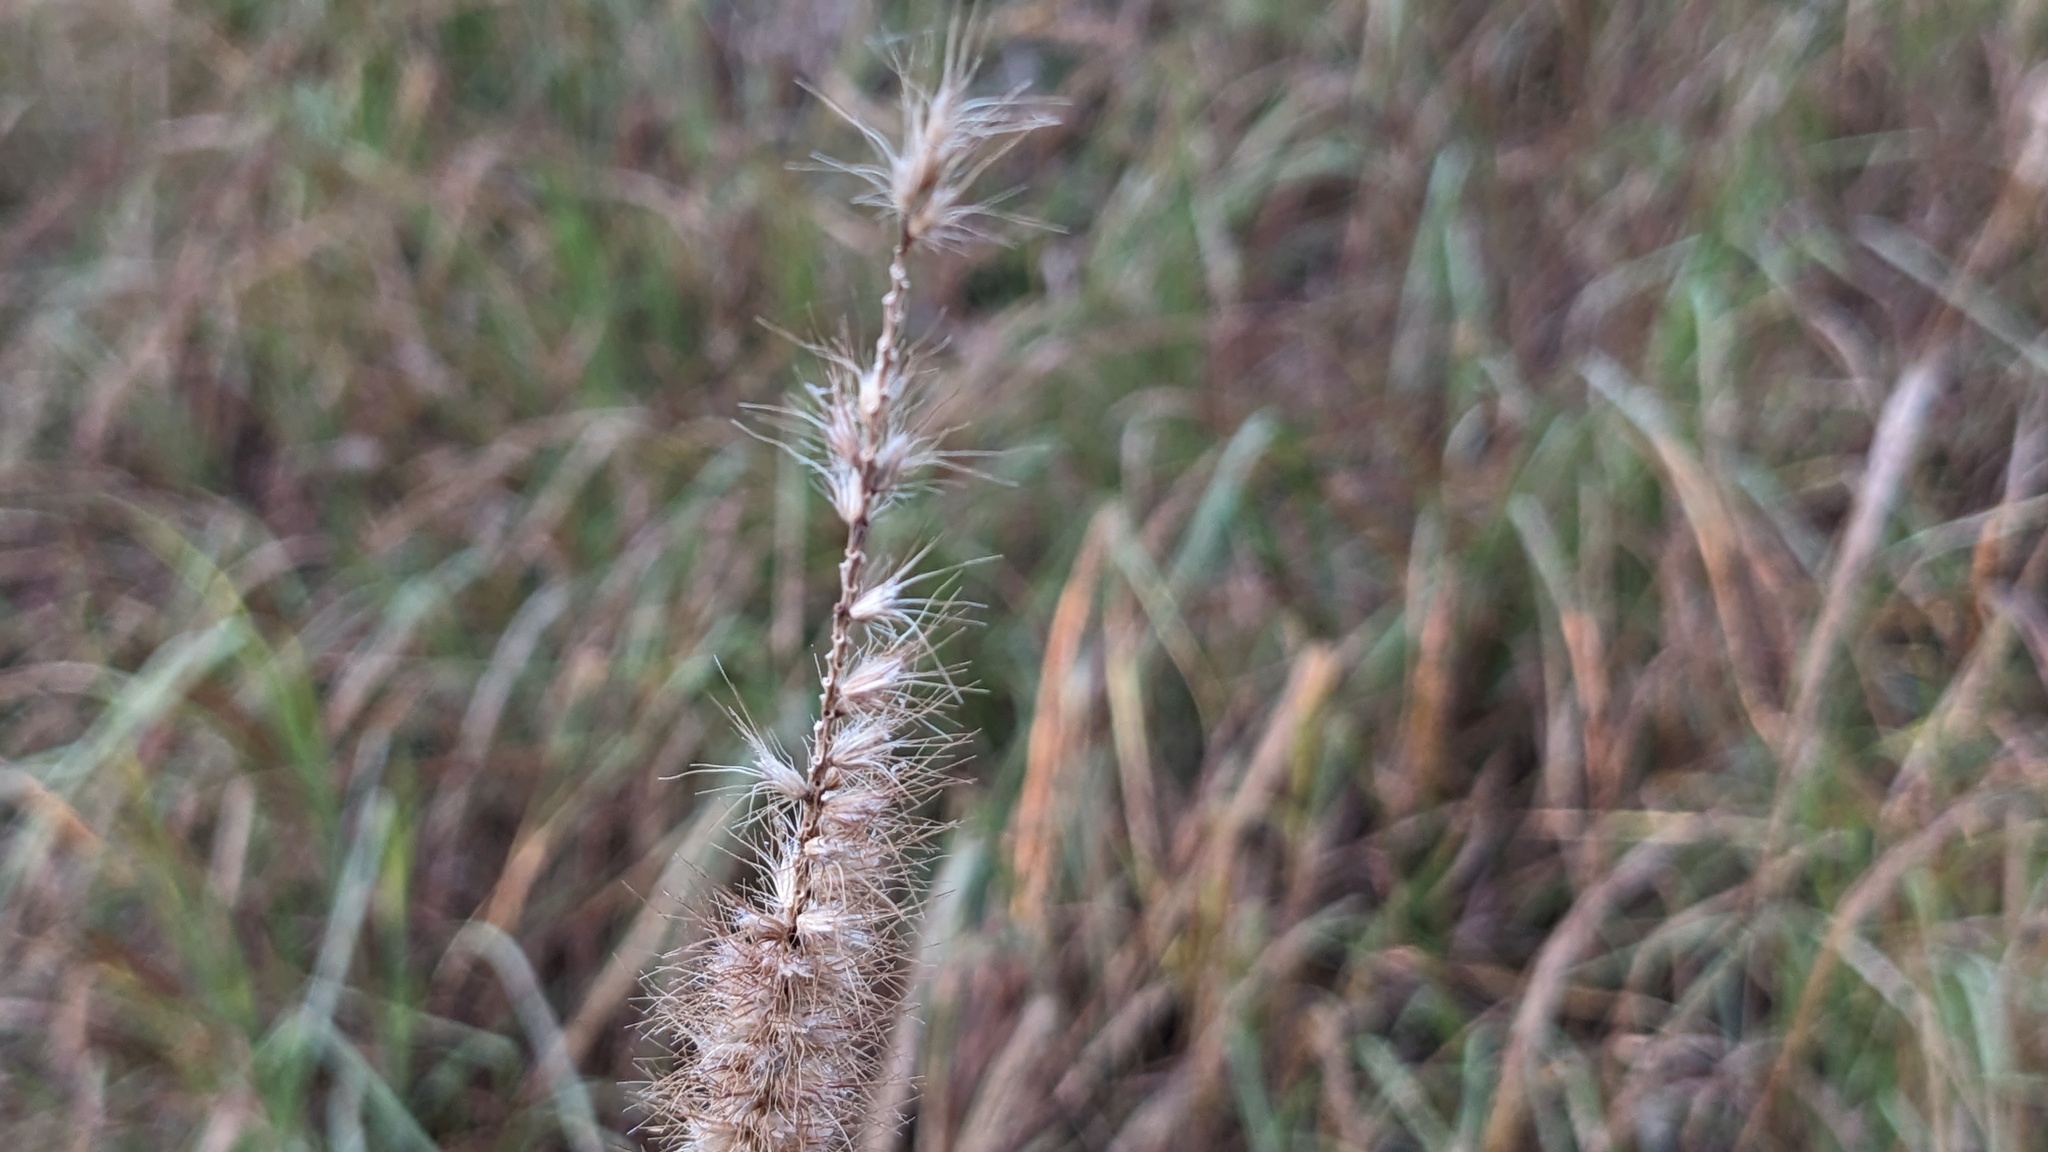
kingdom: Plantae
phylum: Tracheophyta
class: Liliopsida
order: Poales
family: Poaceae
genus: Cenchrus
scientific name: Cenchrus ciliaris
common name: Buffelgrass
